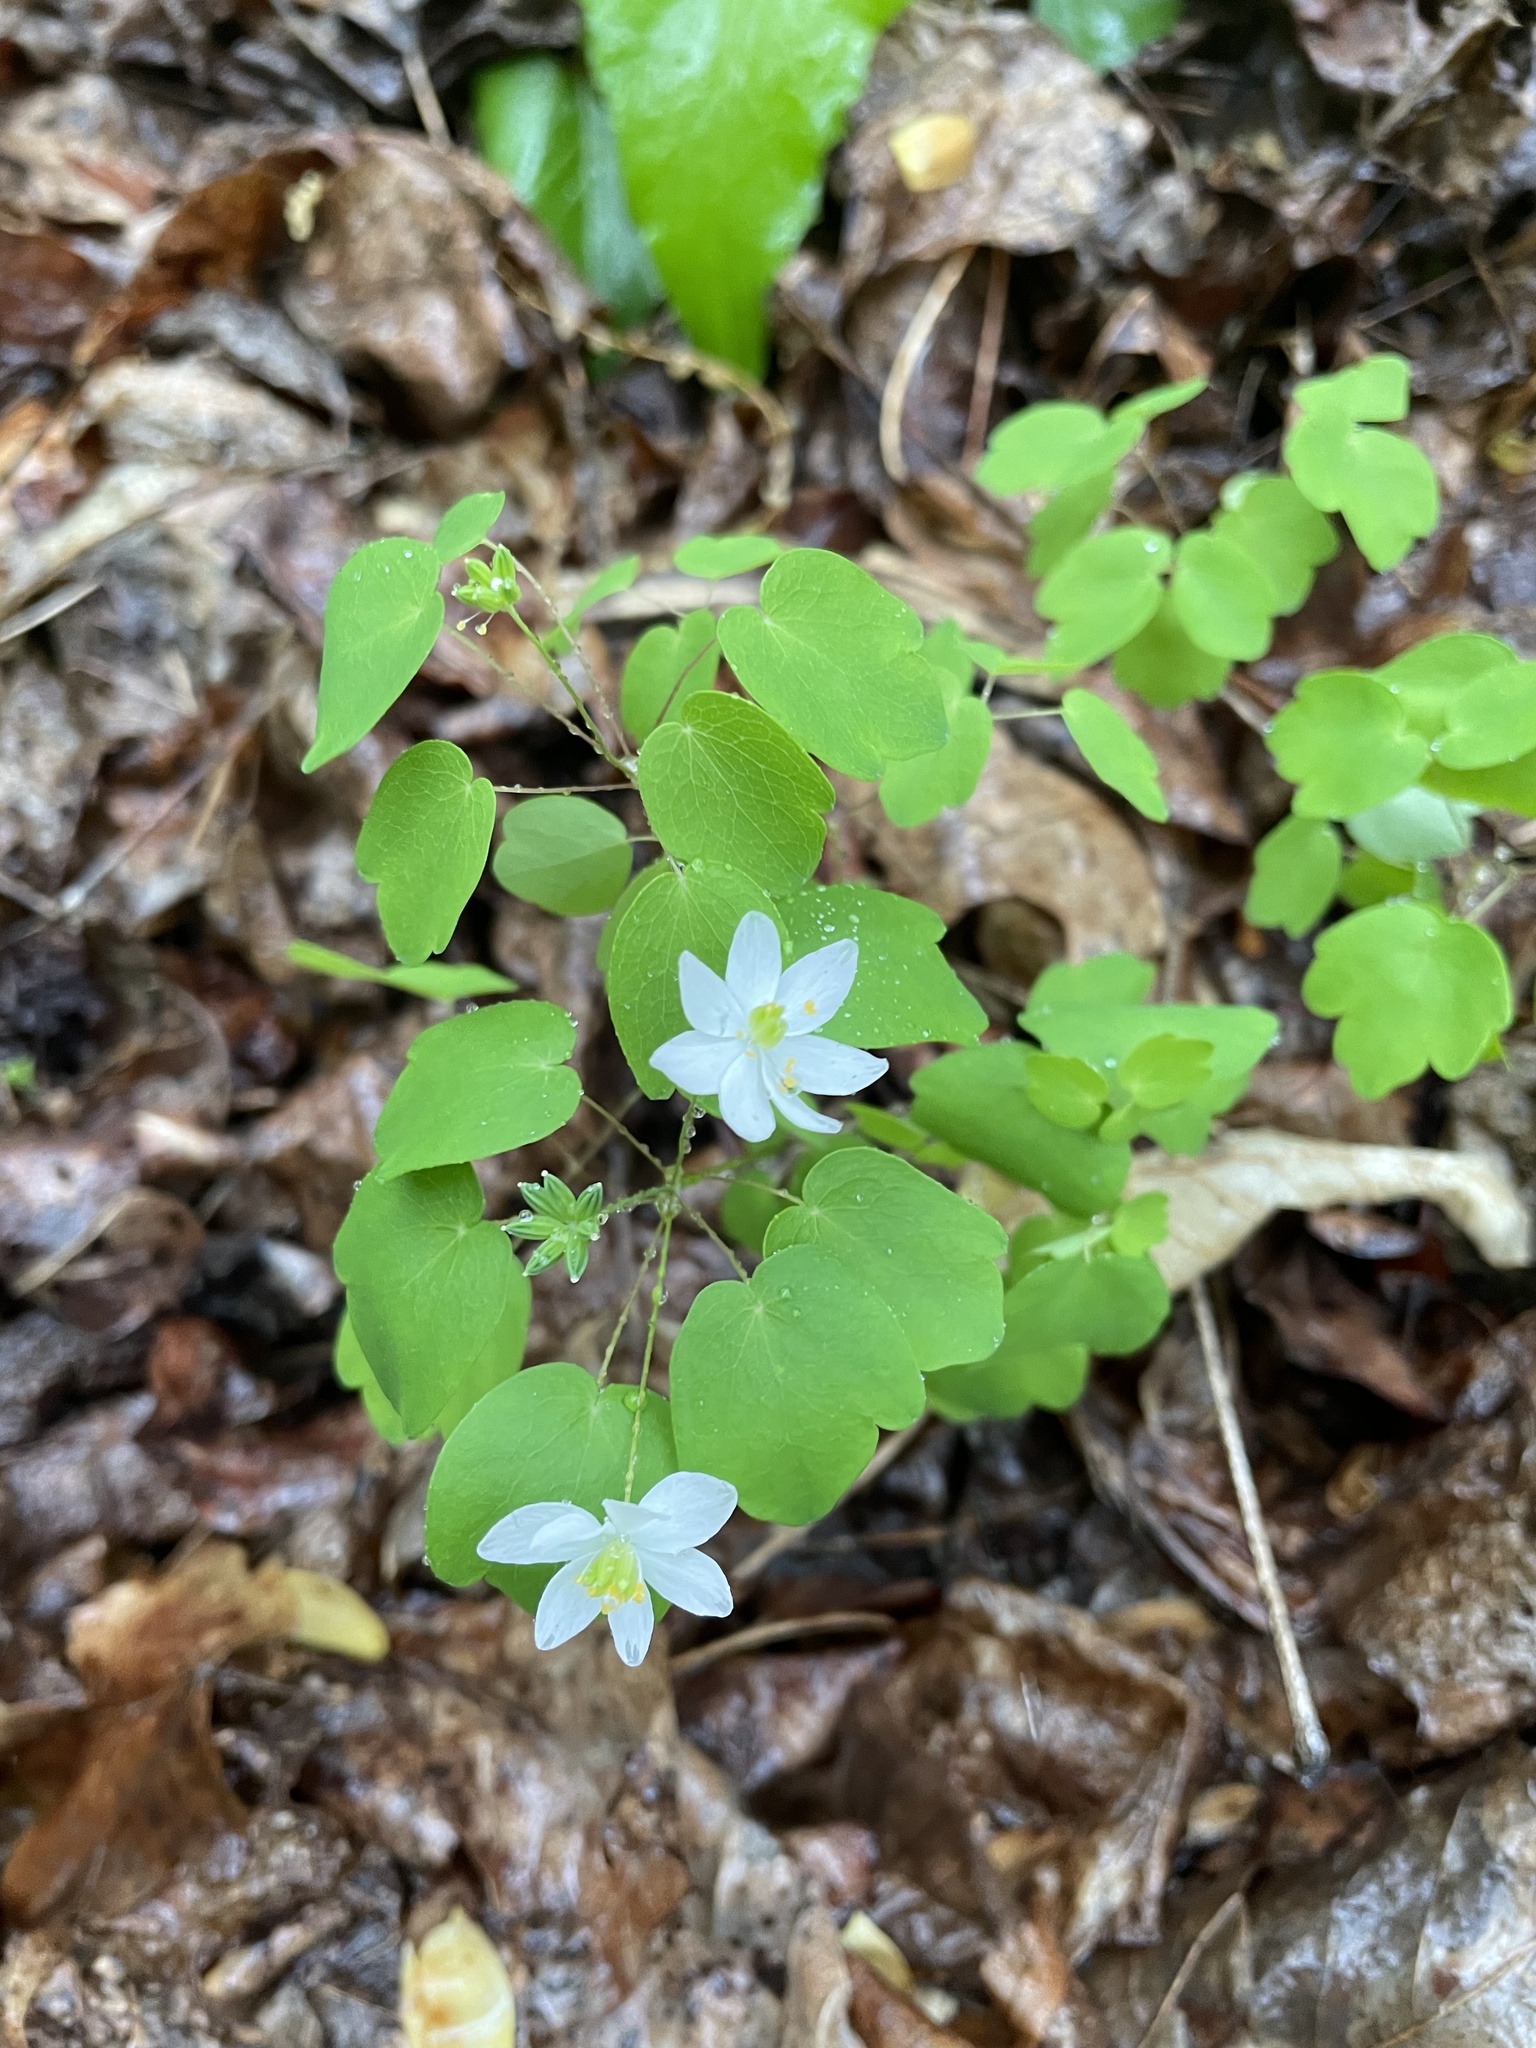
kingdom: Plantae
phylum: Tracheophyta
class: Magnoliopsida
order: Ranunculales
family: Ranunculaceae
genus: Thalictrum
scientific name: Thalictrum thalictroides
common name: Rue-anemone
